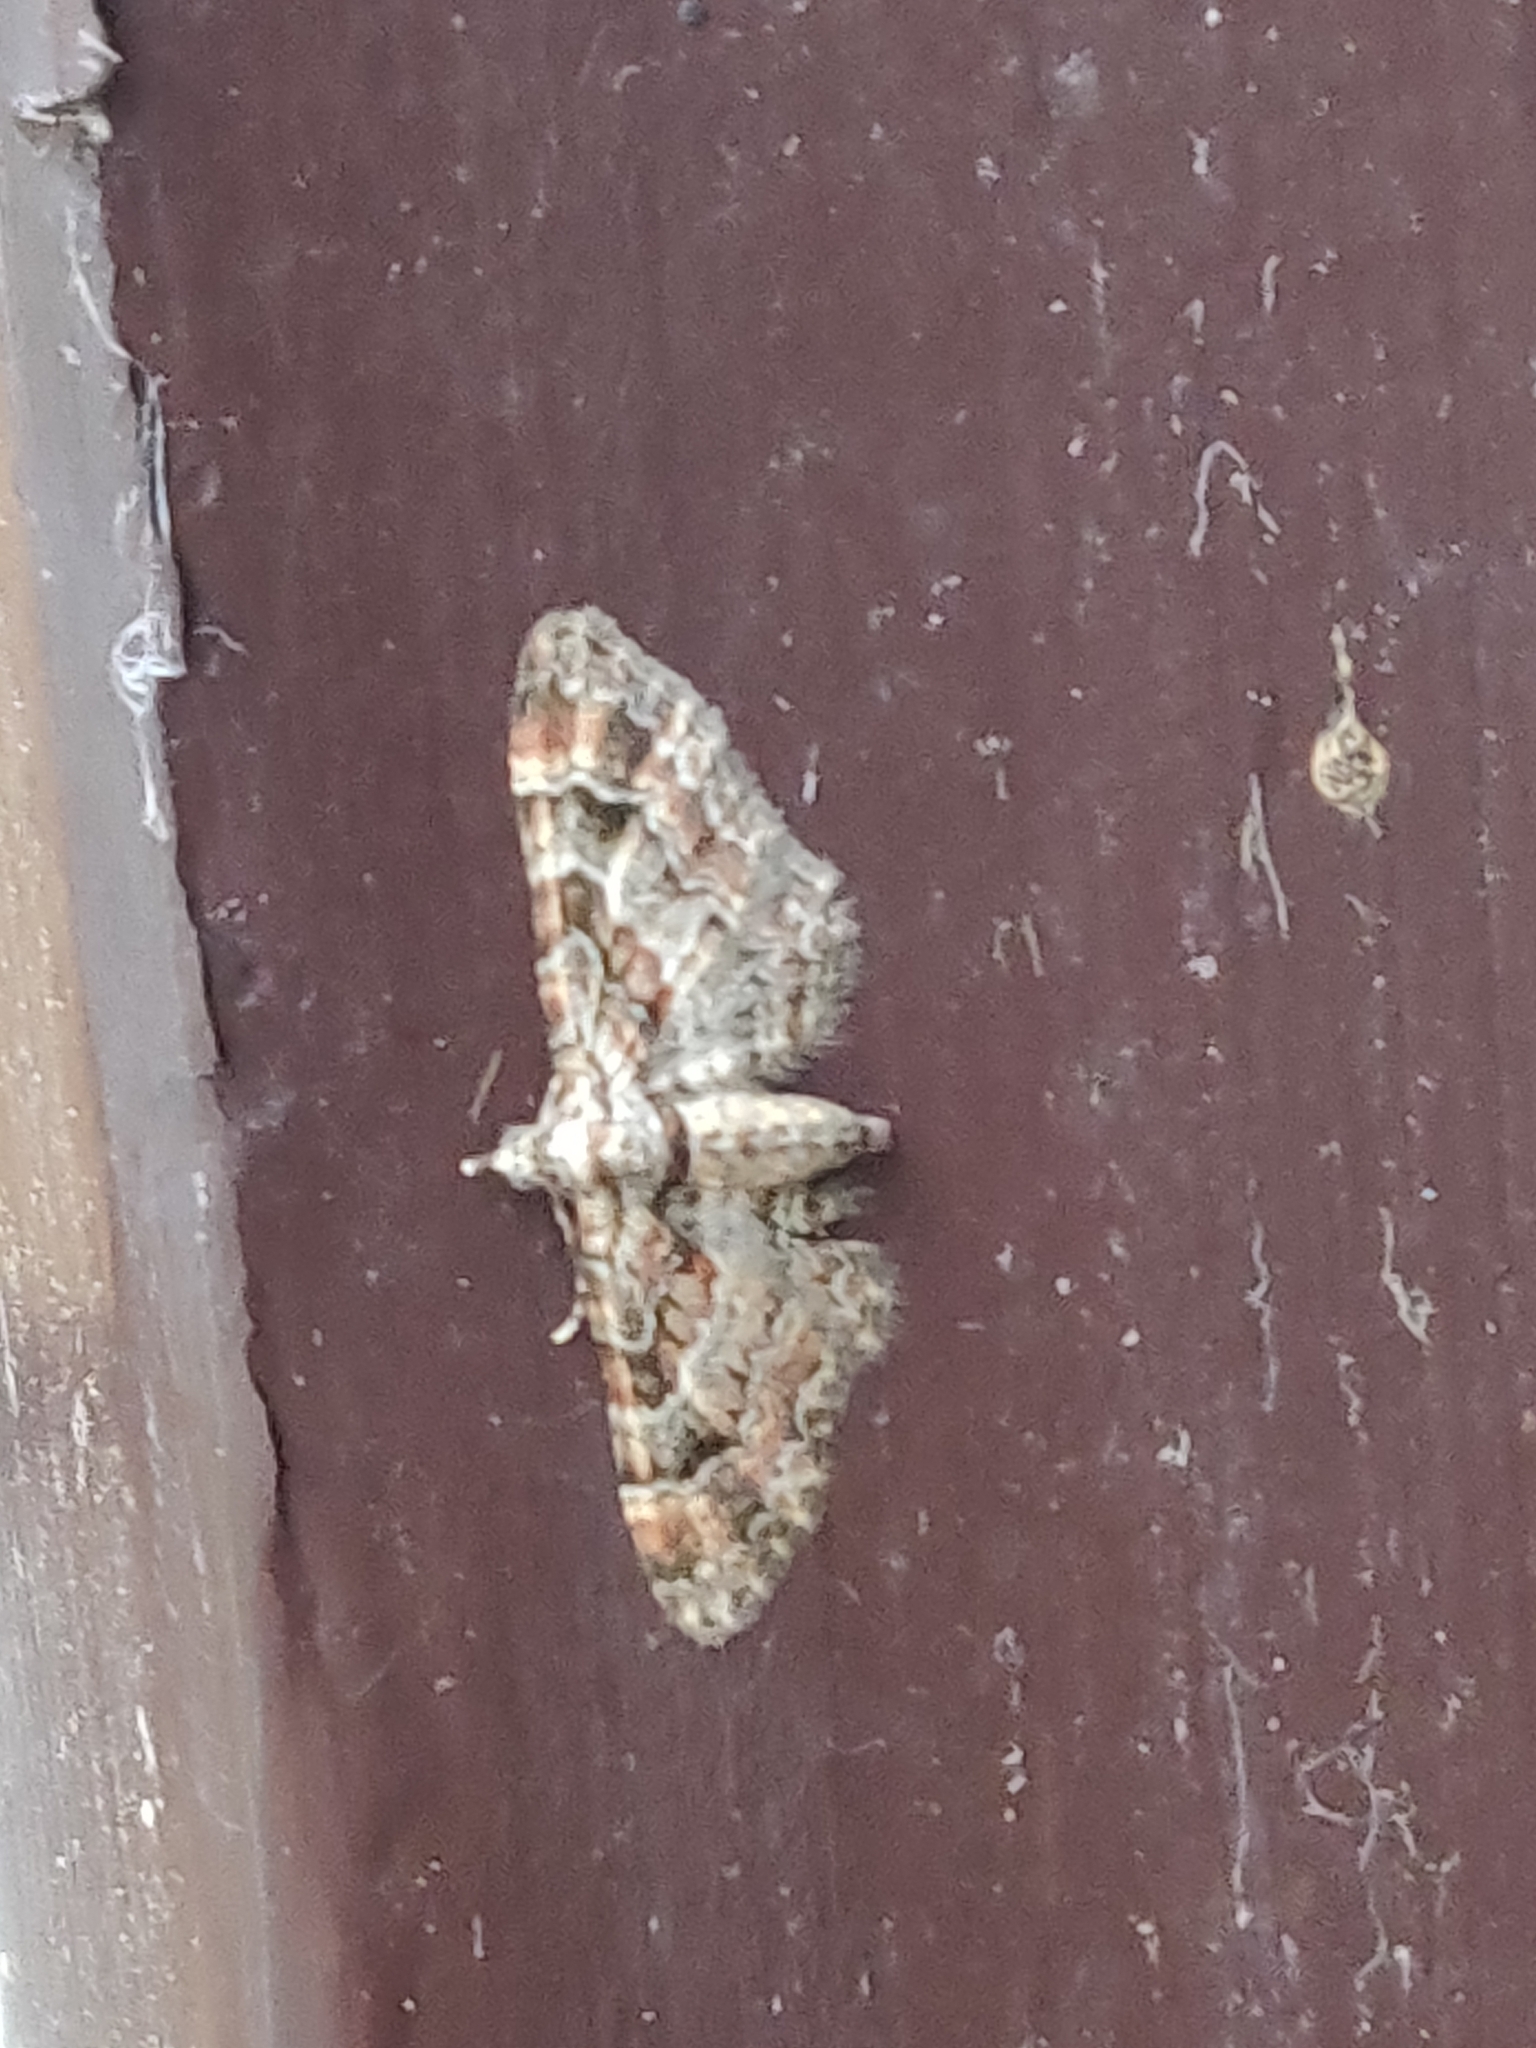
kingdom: Animalia
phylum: Arthropoda
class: Insecta
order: Lepidoptera
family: Geometridae
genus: Gymnoscelis
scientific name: Gymnoscelis rufifasciata
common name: Double-striped pug
